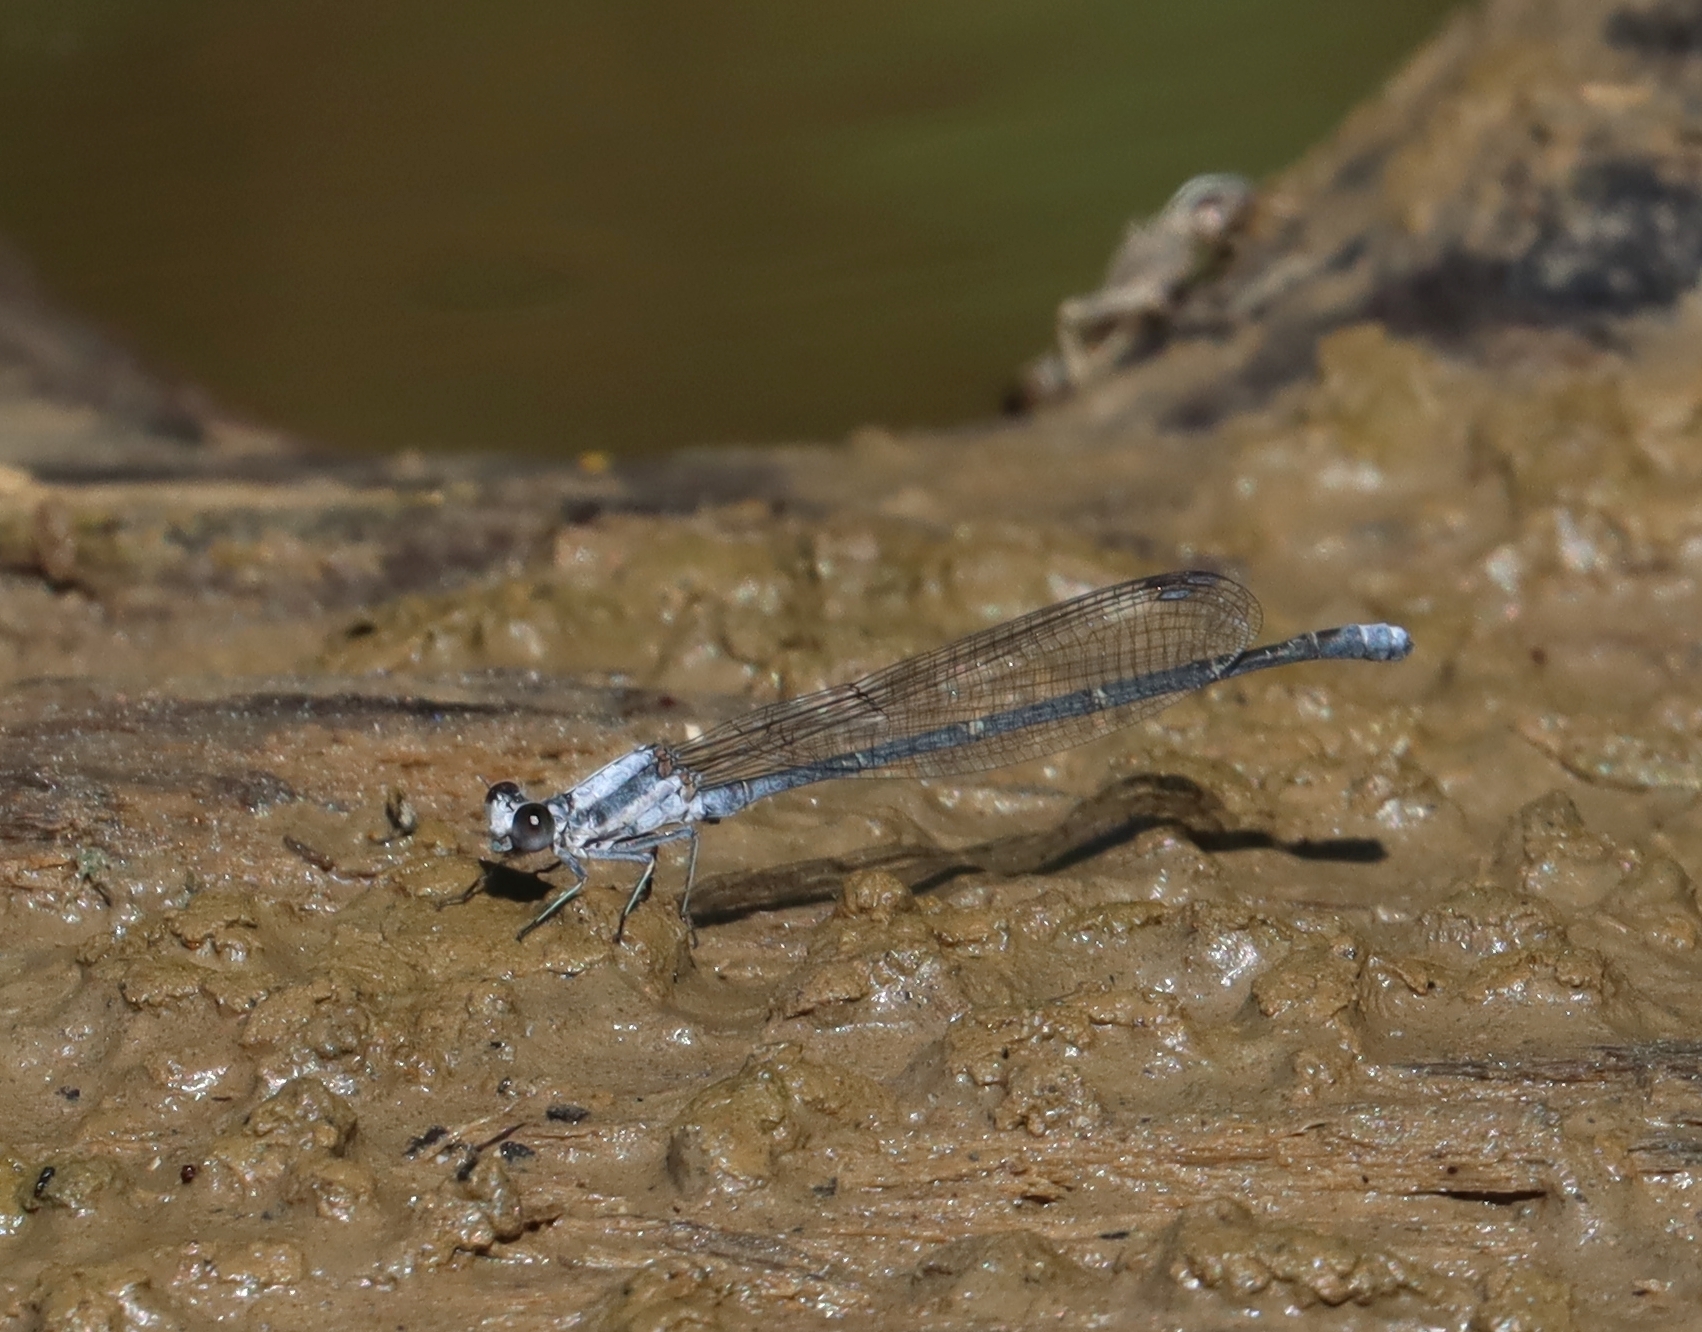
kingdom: Animalia
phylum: Arthropoda
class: Insecta
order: Odonata
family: Coenagrionidae
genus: Argia
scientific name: Argia moesta
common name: Powdered dancer
